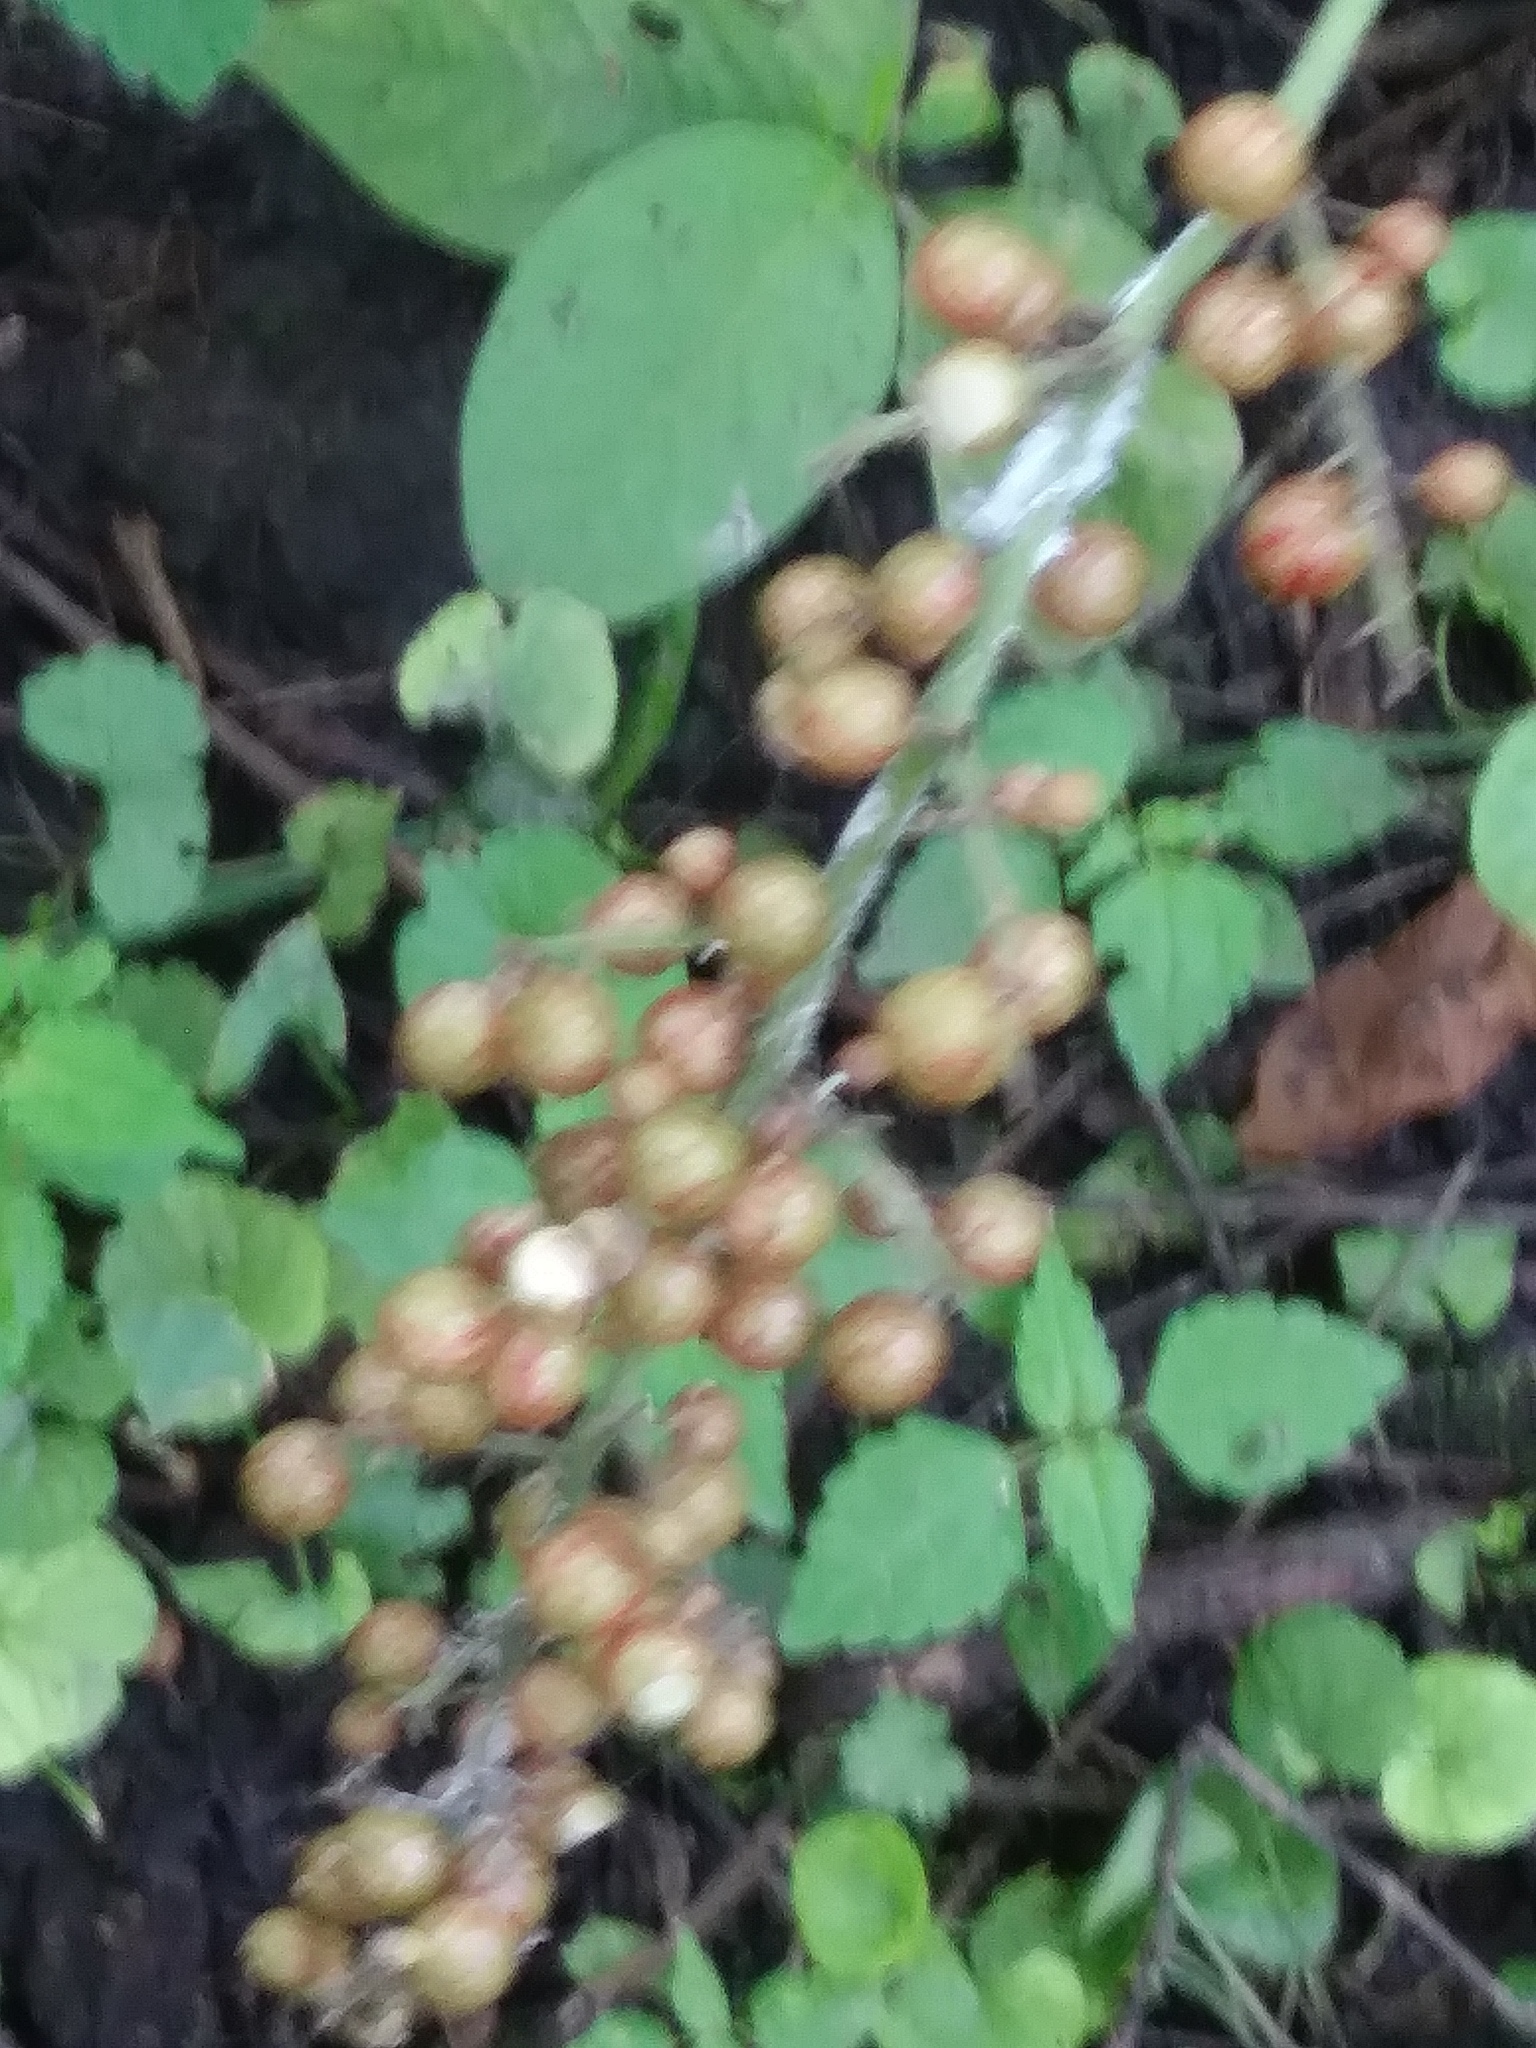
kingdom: Plantae
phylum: Tracheophyta
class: Liliopsida
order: Asparagales
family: Asparagaceae
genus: Maianthemum
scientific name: Maianthemum racemosum
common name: False spikenard
